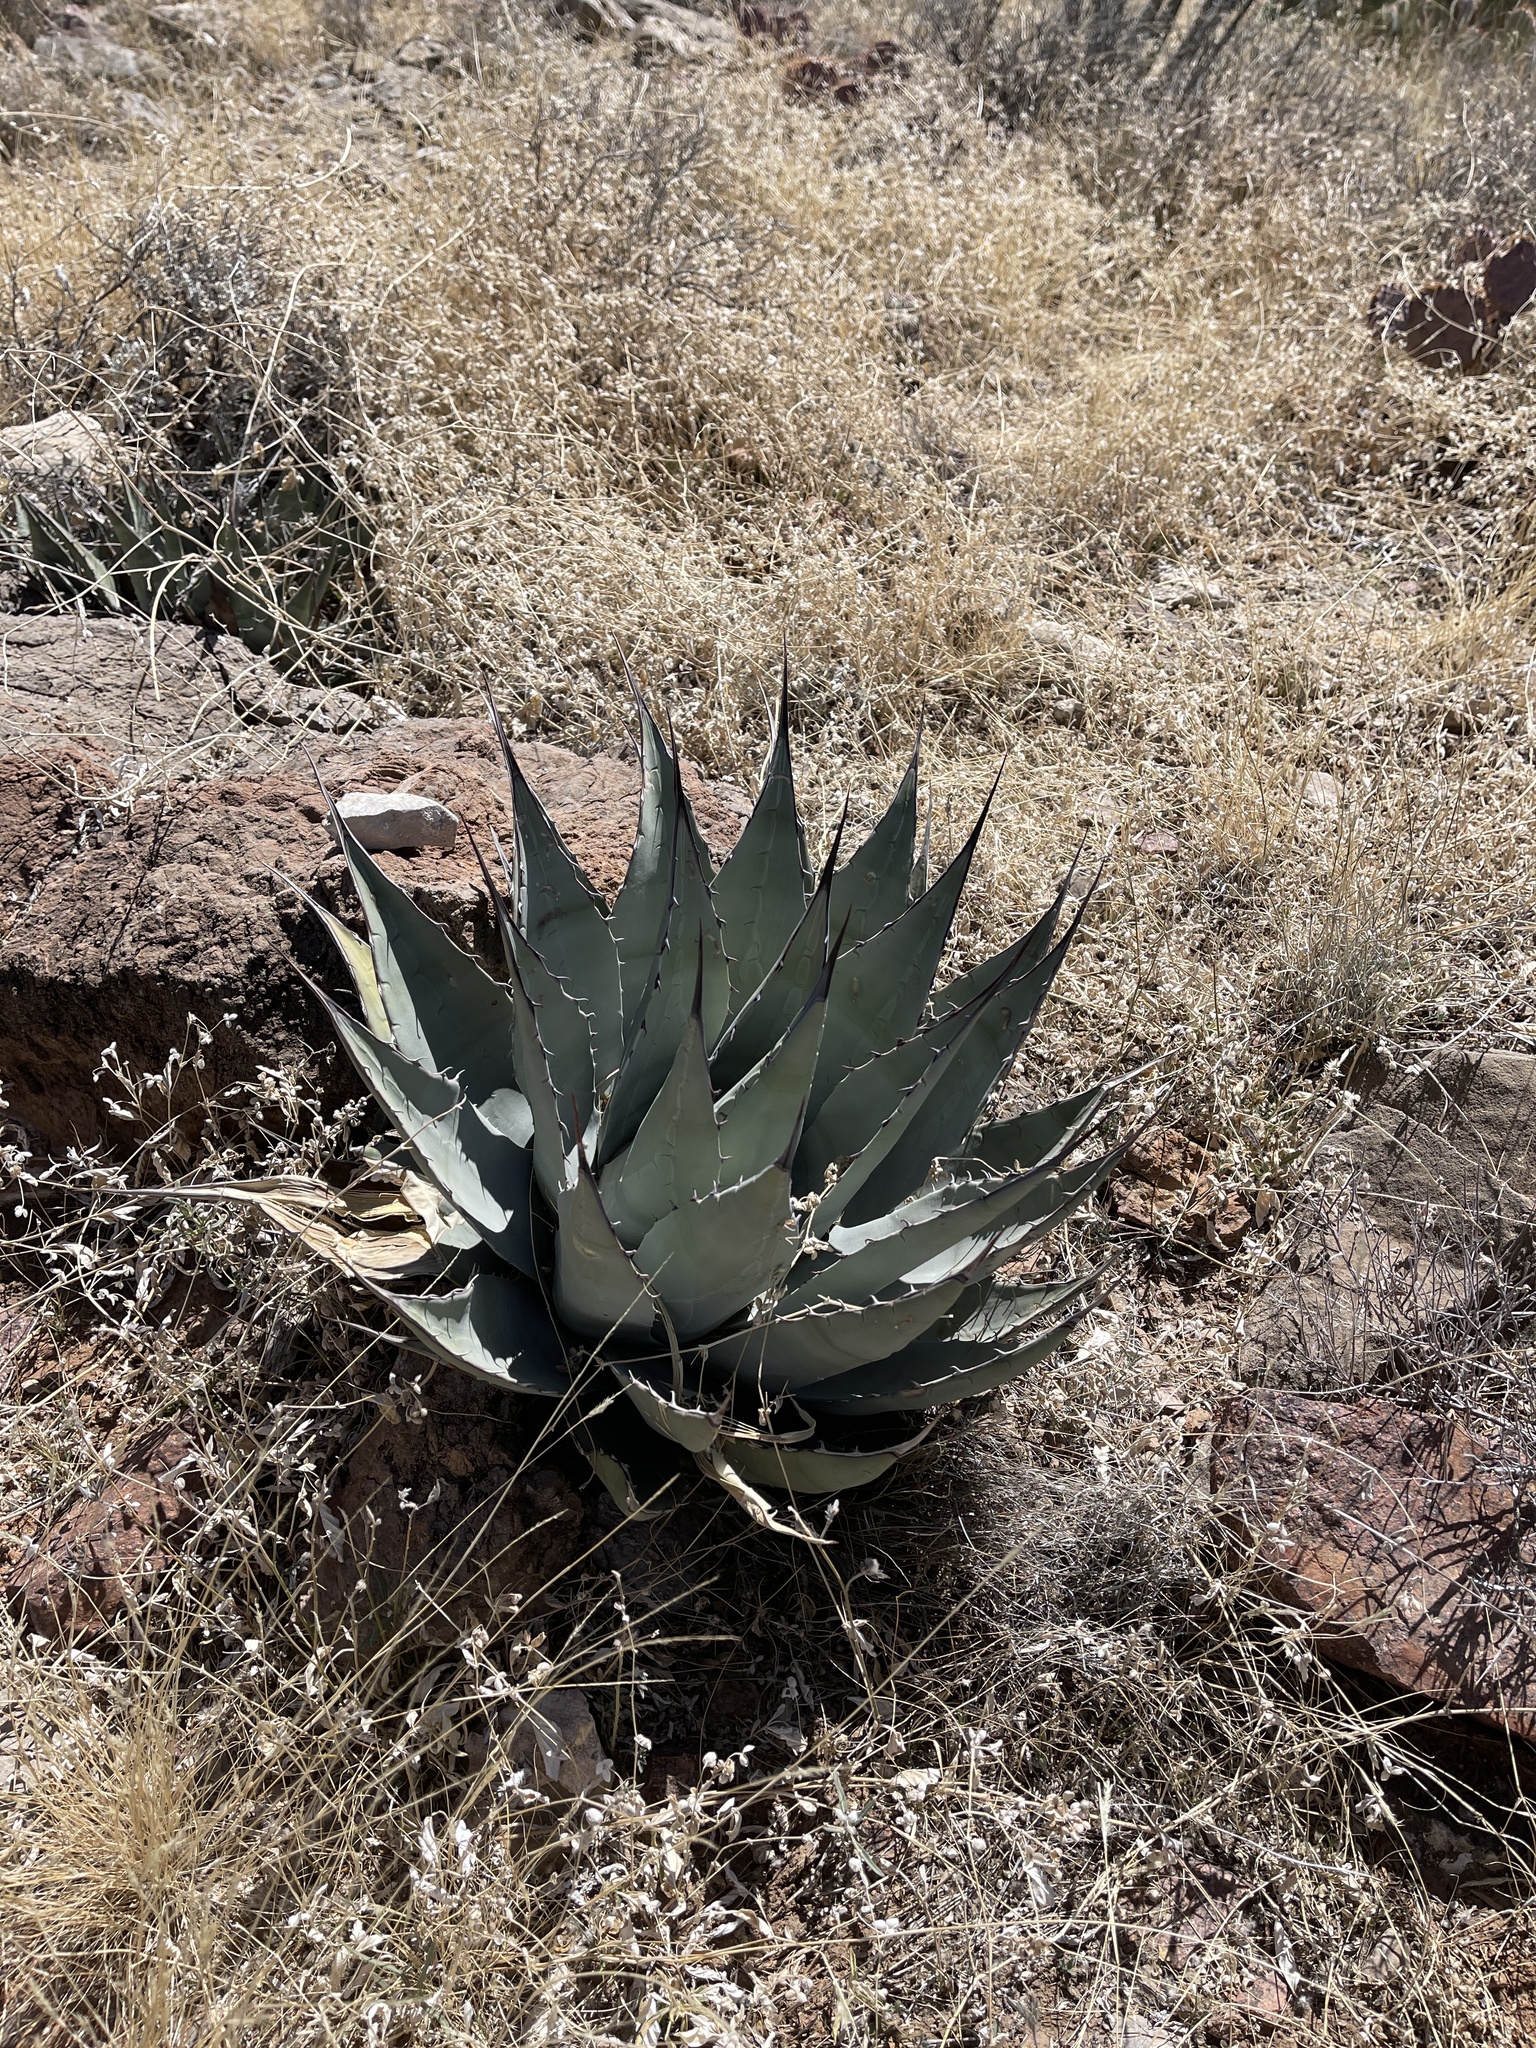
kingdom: Plantae
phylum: Tracheophyta
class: Liliopsida
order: Asparagales
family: Asparagaceae
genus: Agave
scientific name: Agave parryi
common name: Parry's agave
